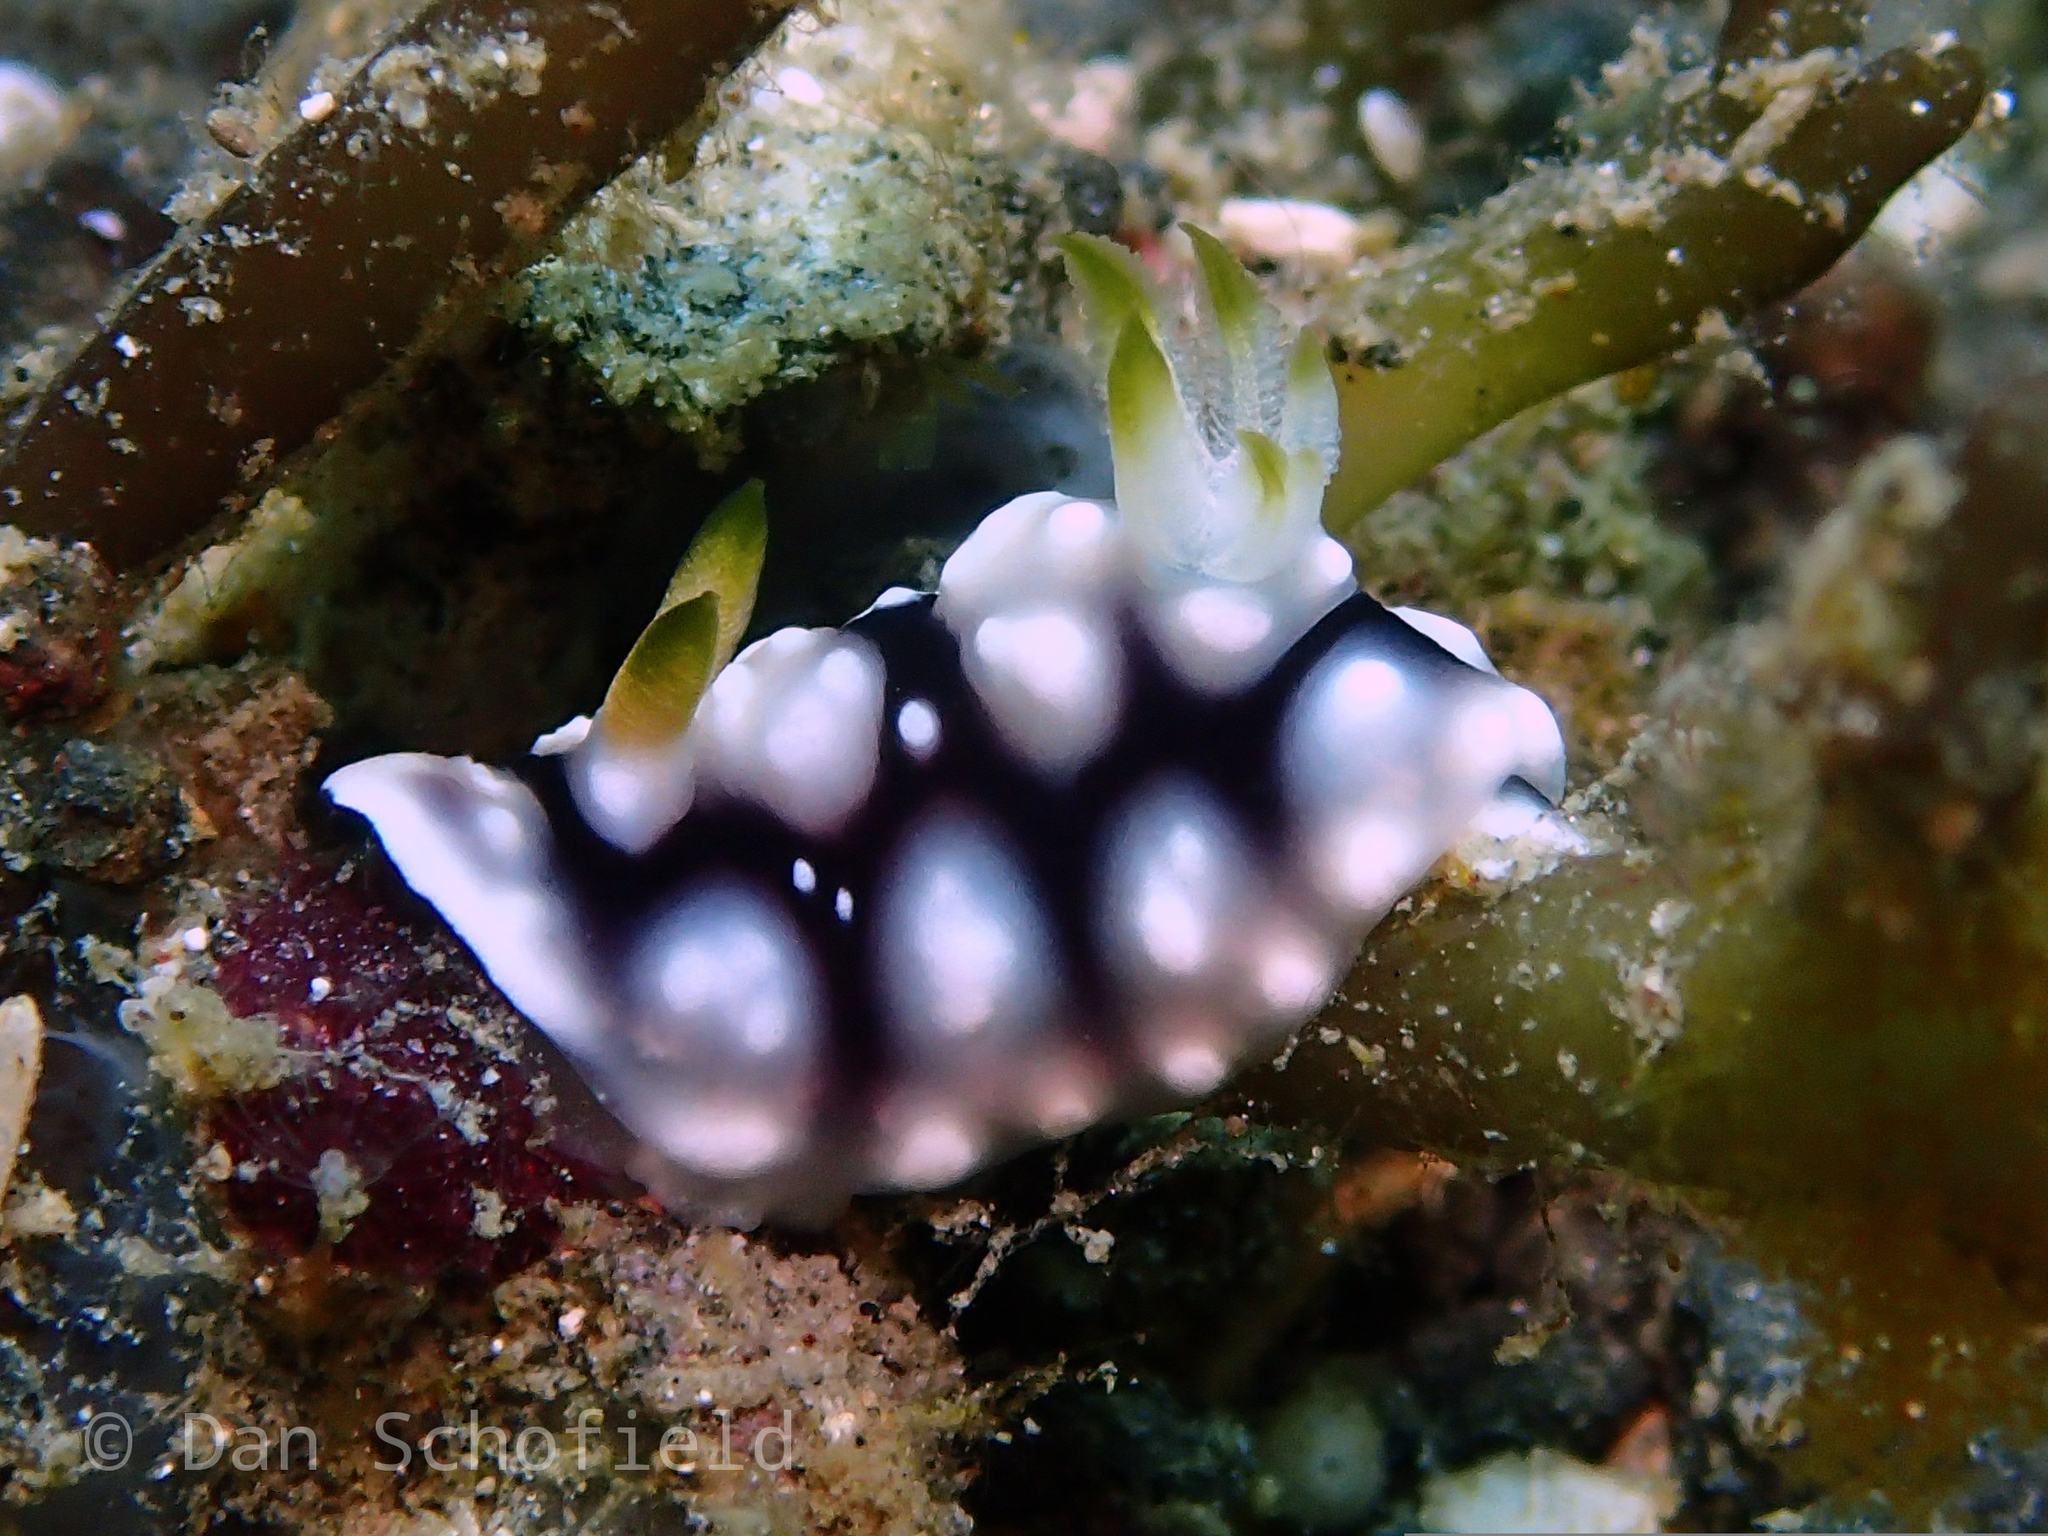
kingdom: Animalia
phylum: Mollusca
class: Gastropoda
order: Nudibranchia
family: Chromodorididae
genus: Goniobranchus
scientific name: Goniobranchus geometricus
